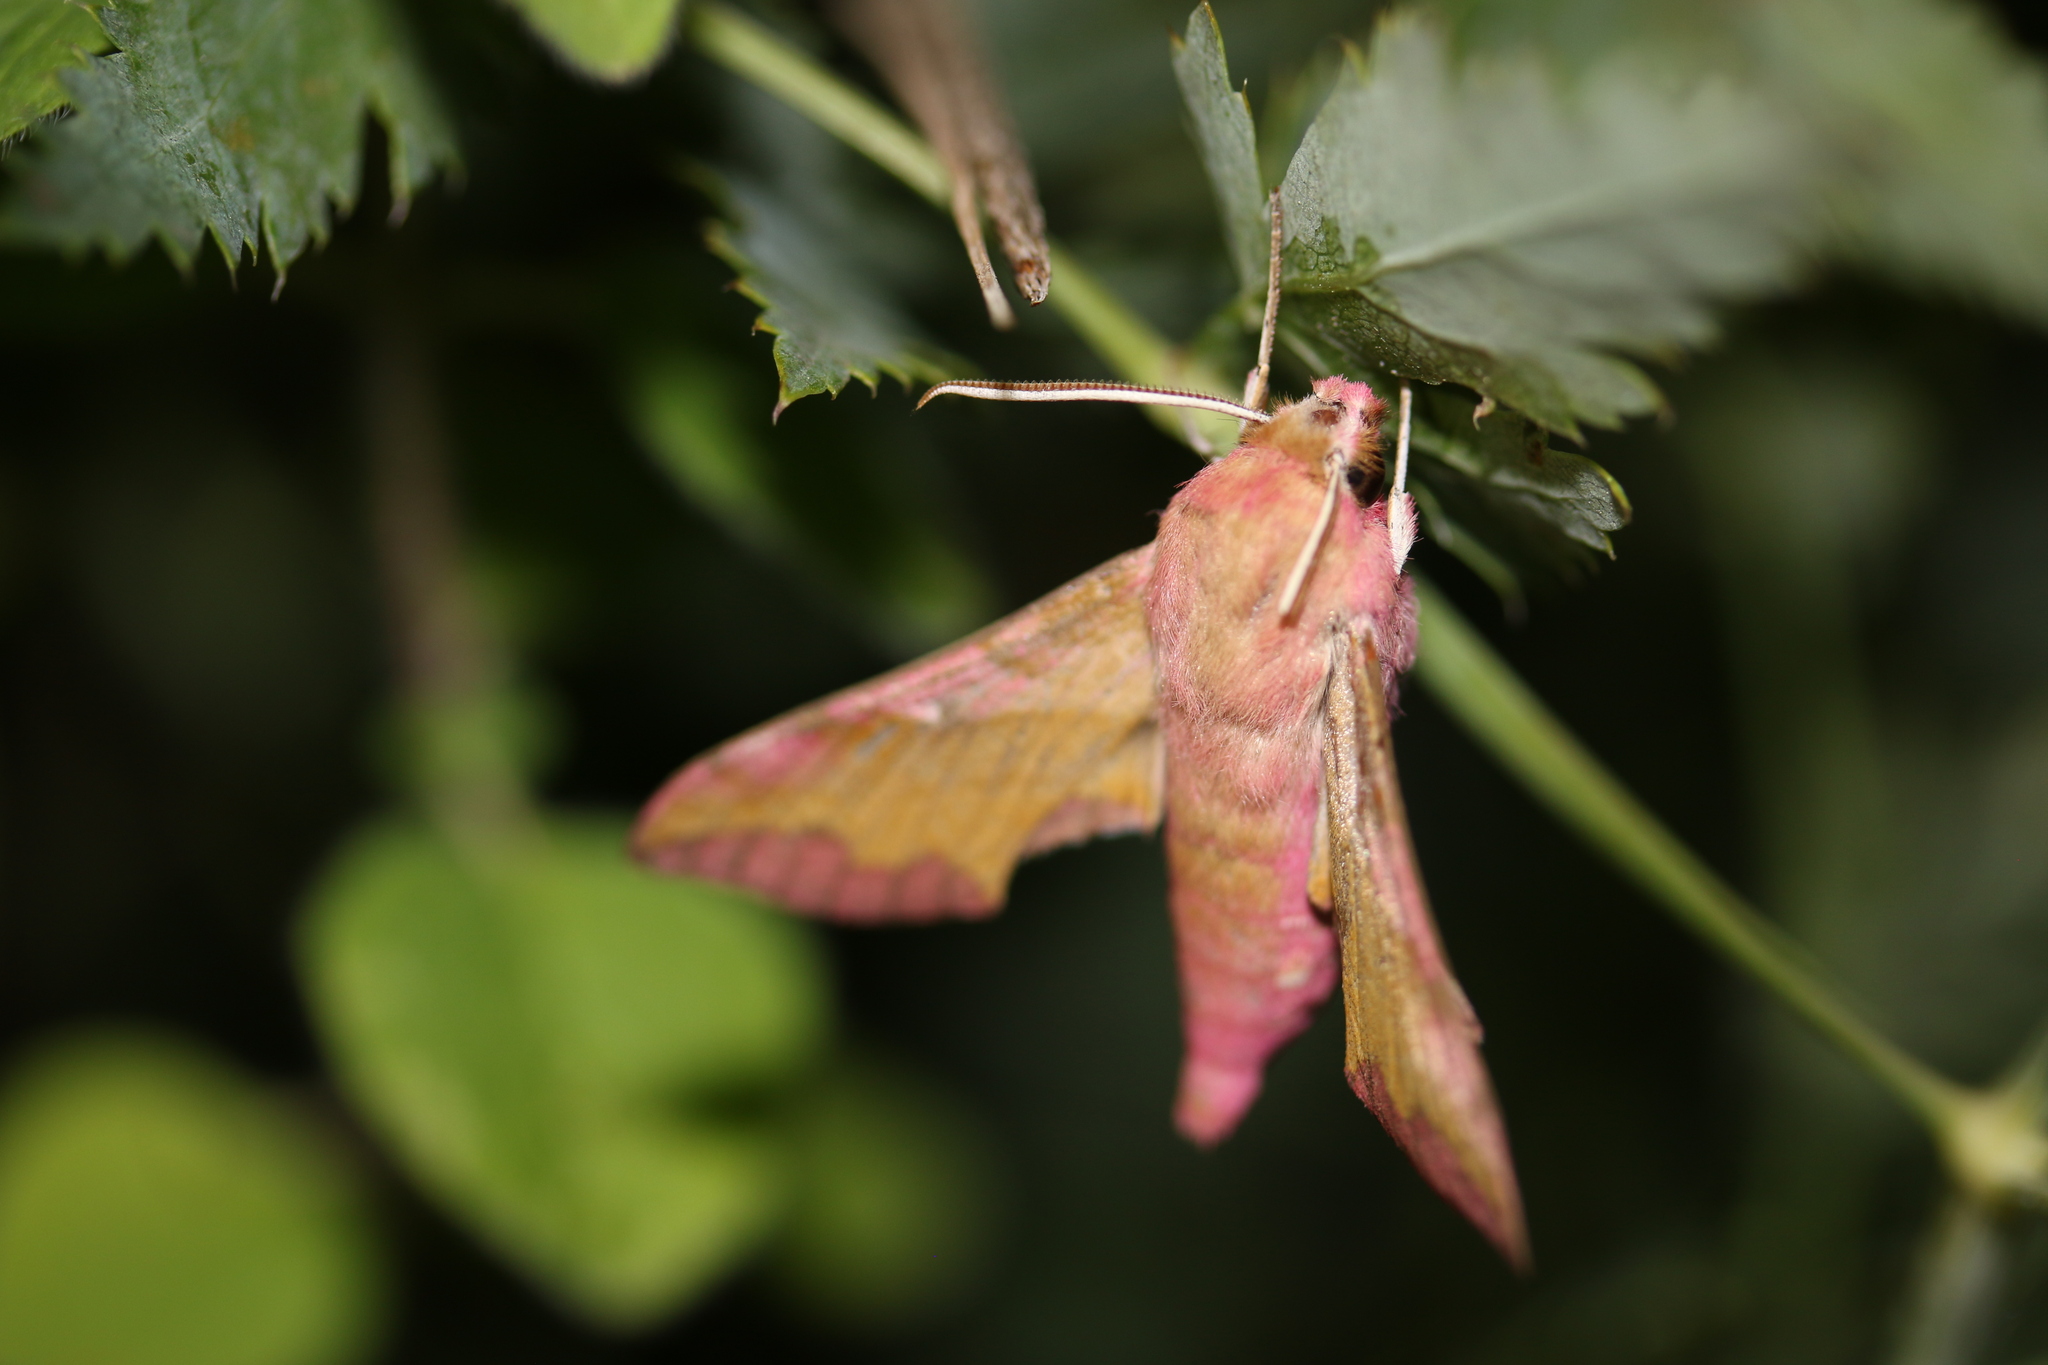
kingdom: Animalia
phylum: Arthropoda
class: Insecta
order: Lepidoptera
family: Sphingidae
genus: Deilephila
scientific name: Deilephila porcellus
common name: Small elephant hawk-moth
